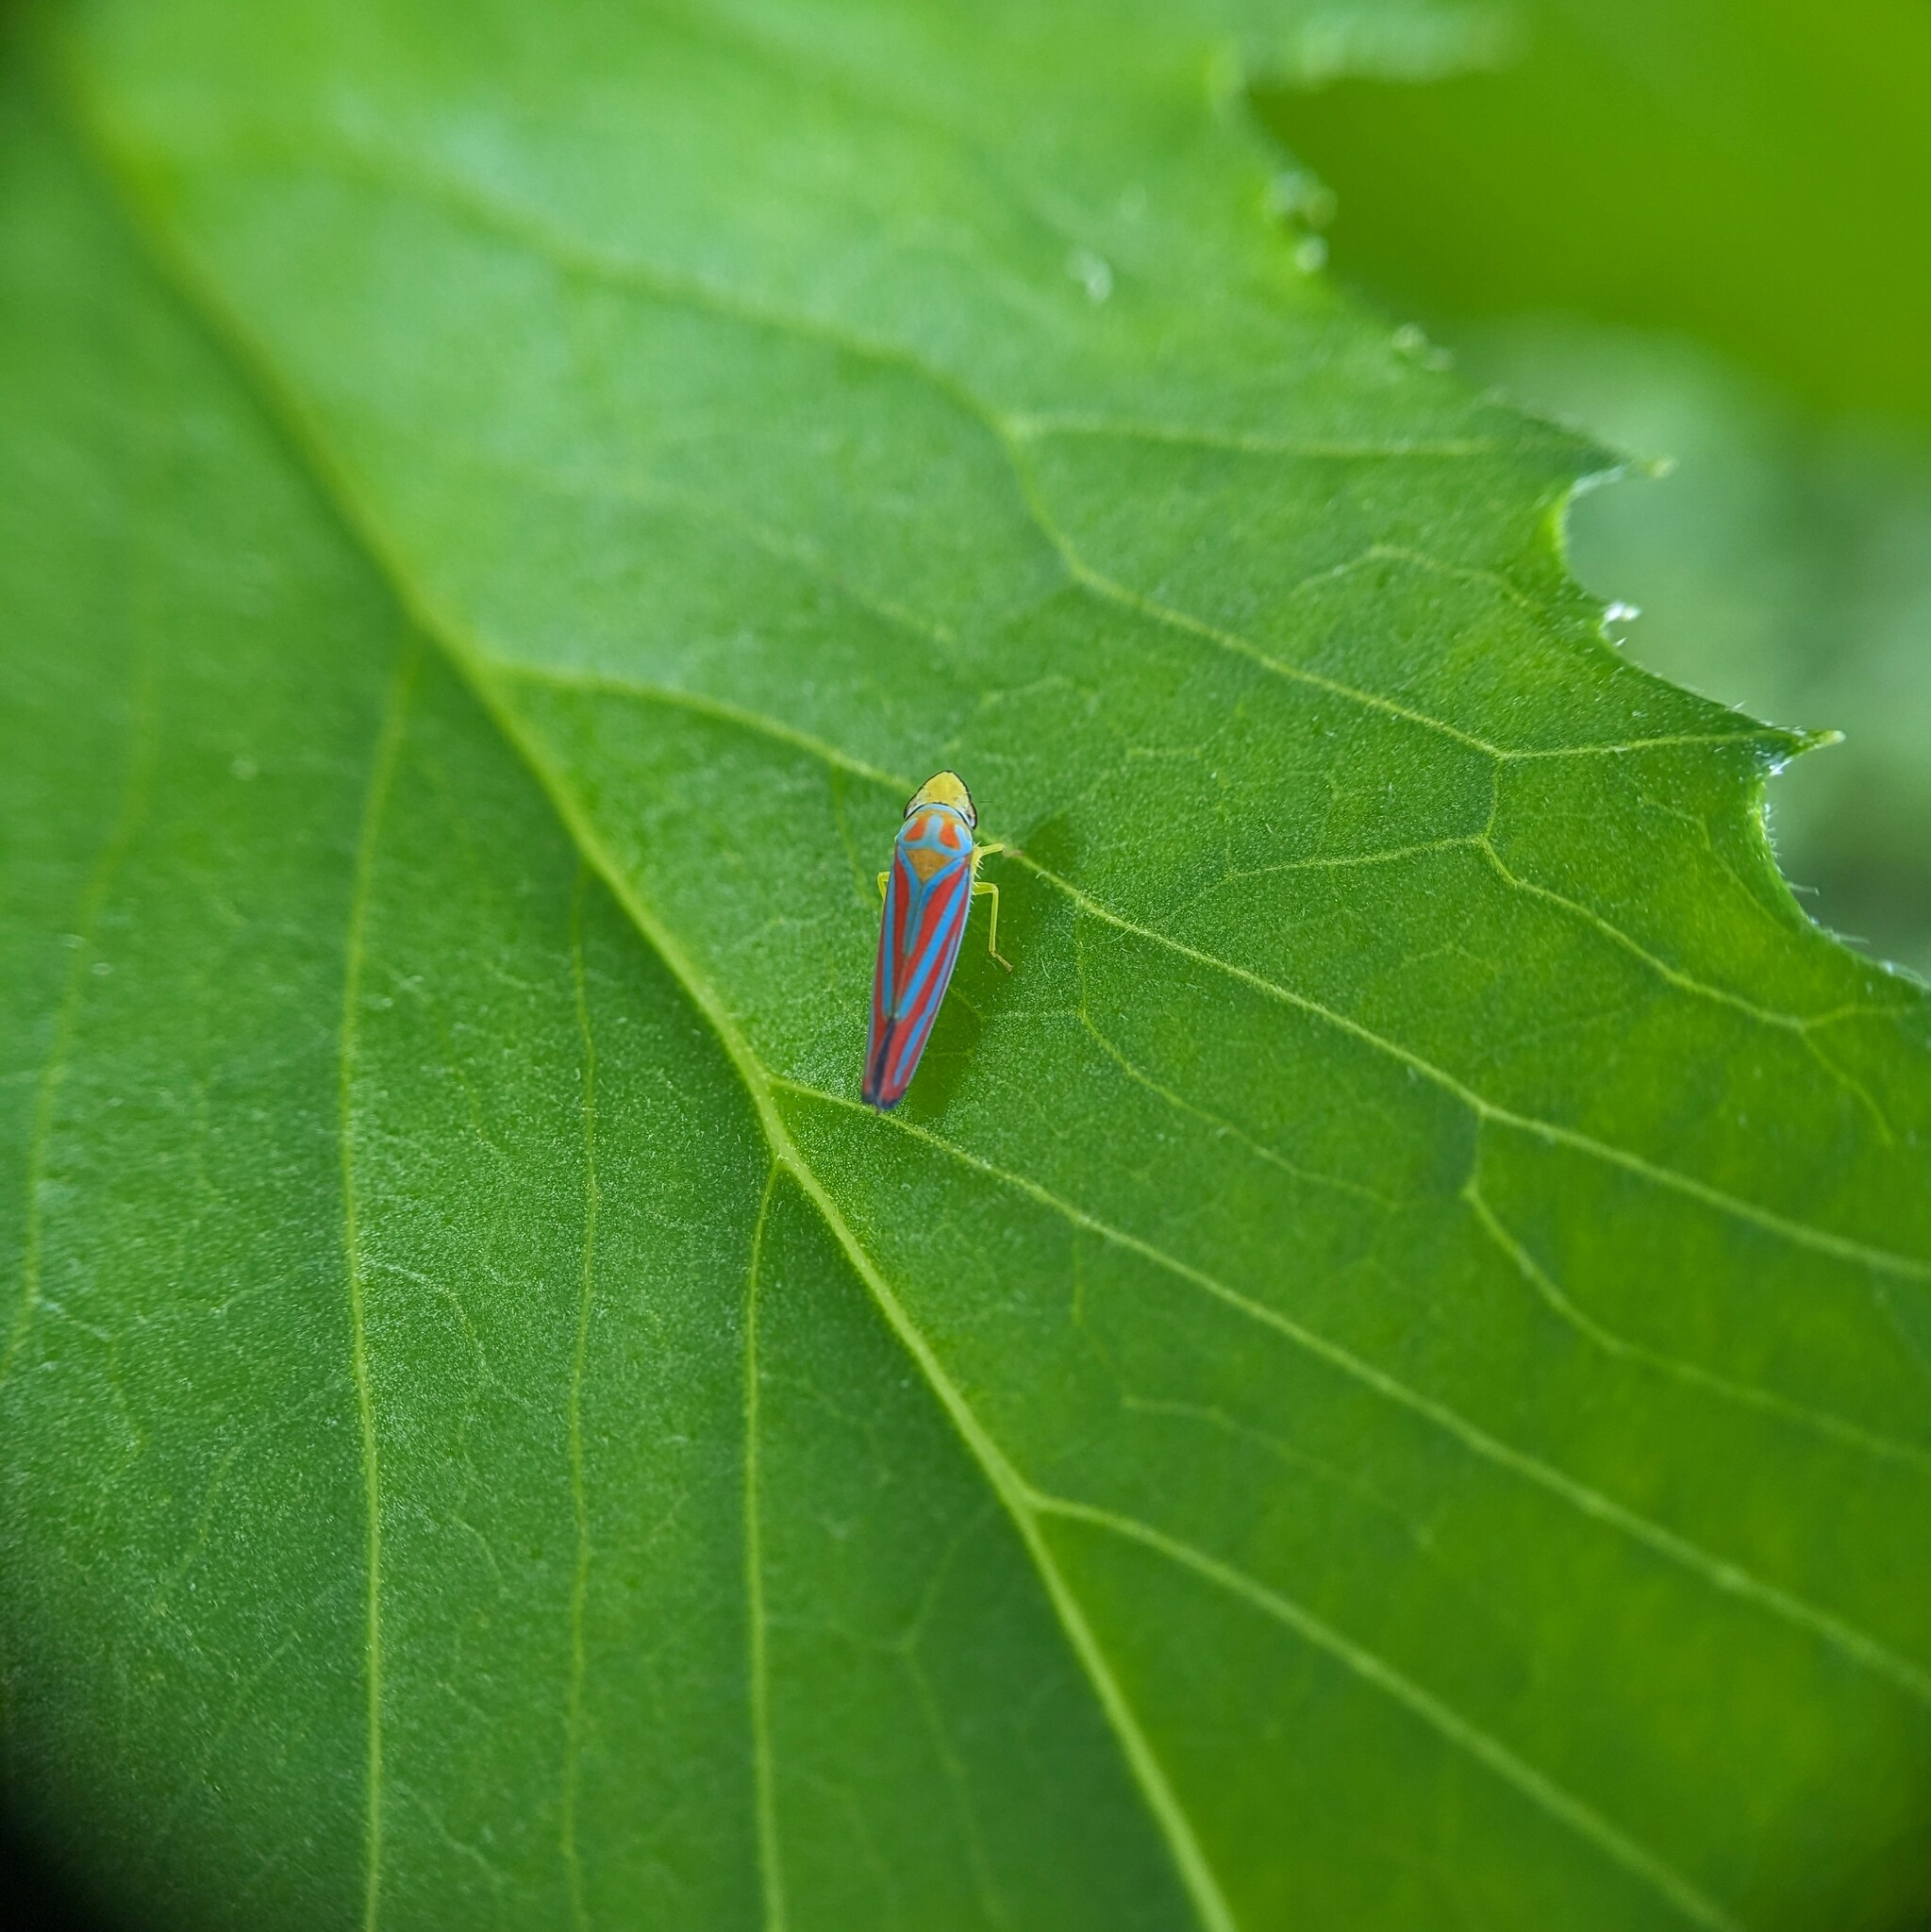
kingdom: Animalia
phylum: Arthropoda
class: Insecta
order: Hemiptera
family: Cicadellidae
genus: Graphocephala
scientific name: Graphocephala coccinea
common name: Candy-striped leafhopper
